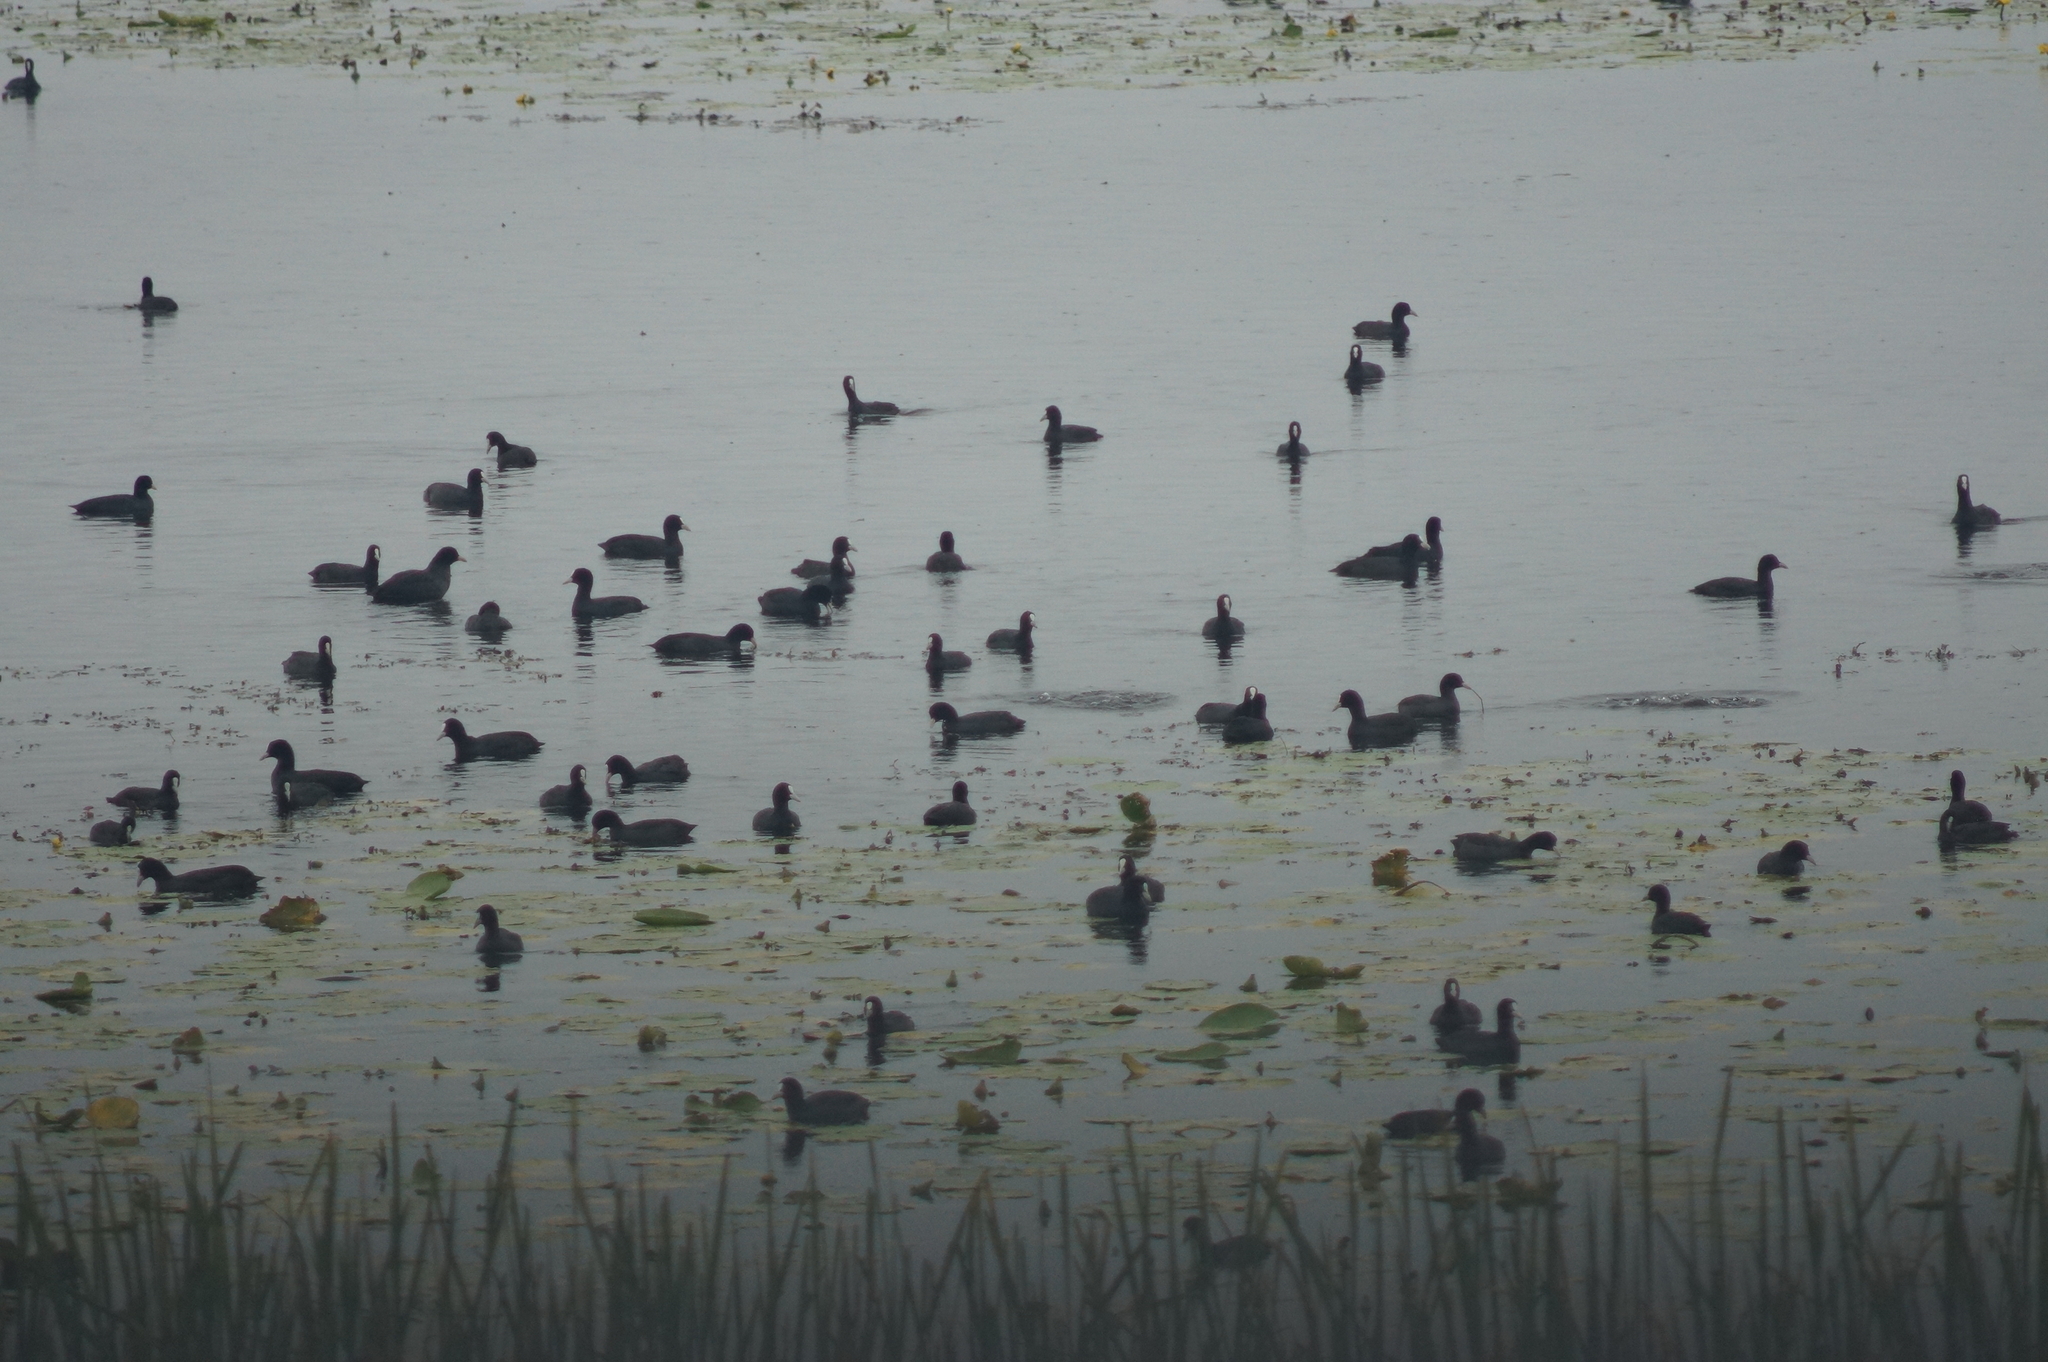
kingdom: Animalia
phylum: Chordata
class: Aves
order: Gruiformes
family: Rallidae
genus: Fulica
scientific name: Fulica atra
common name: Eurasian coot
